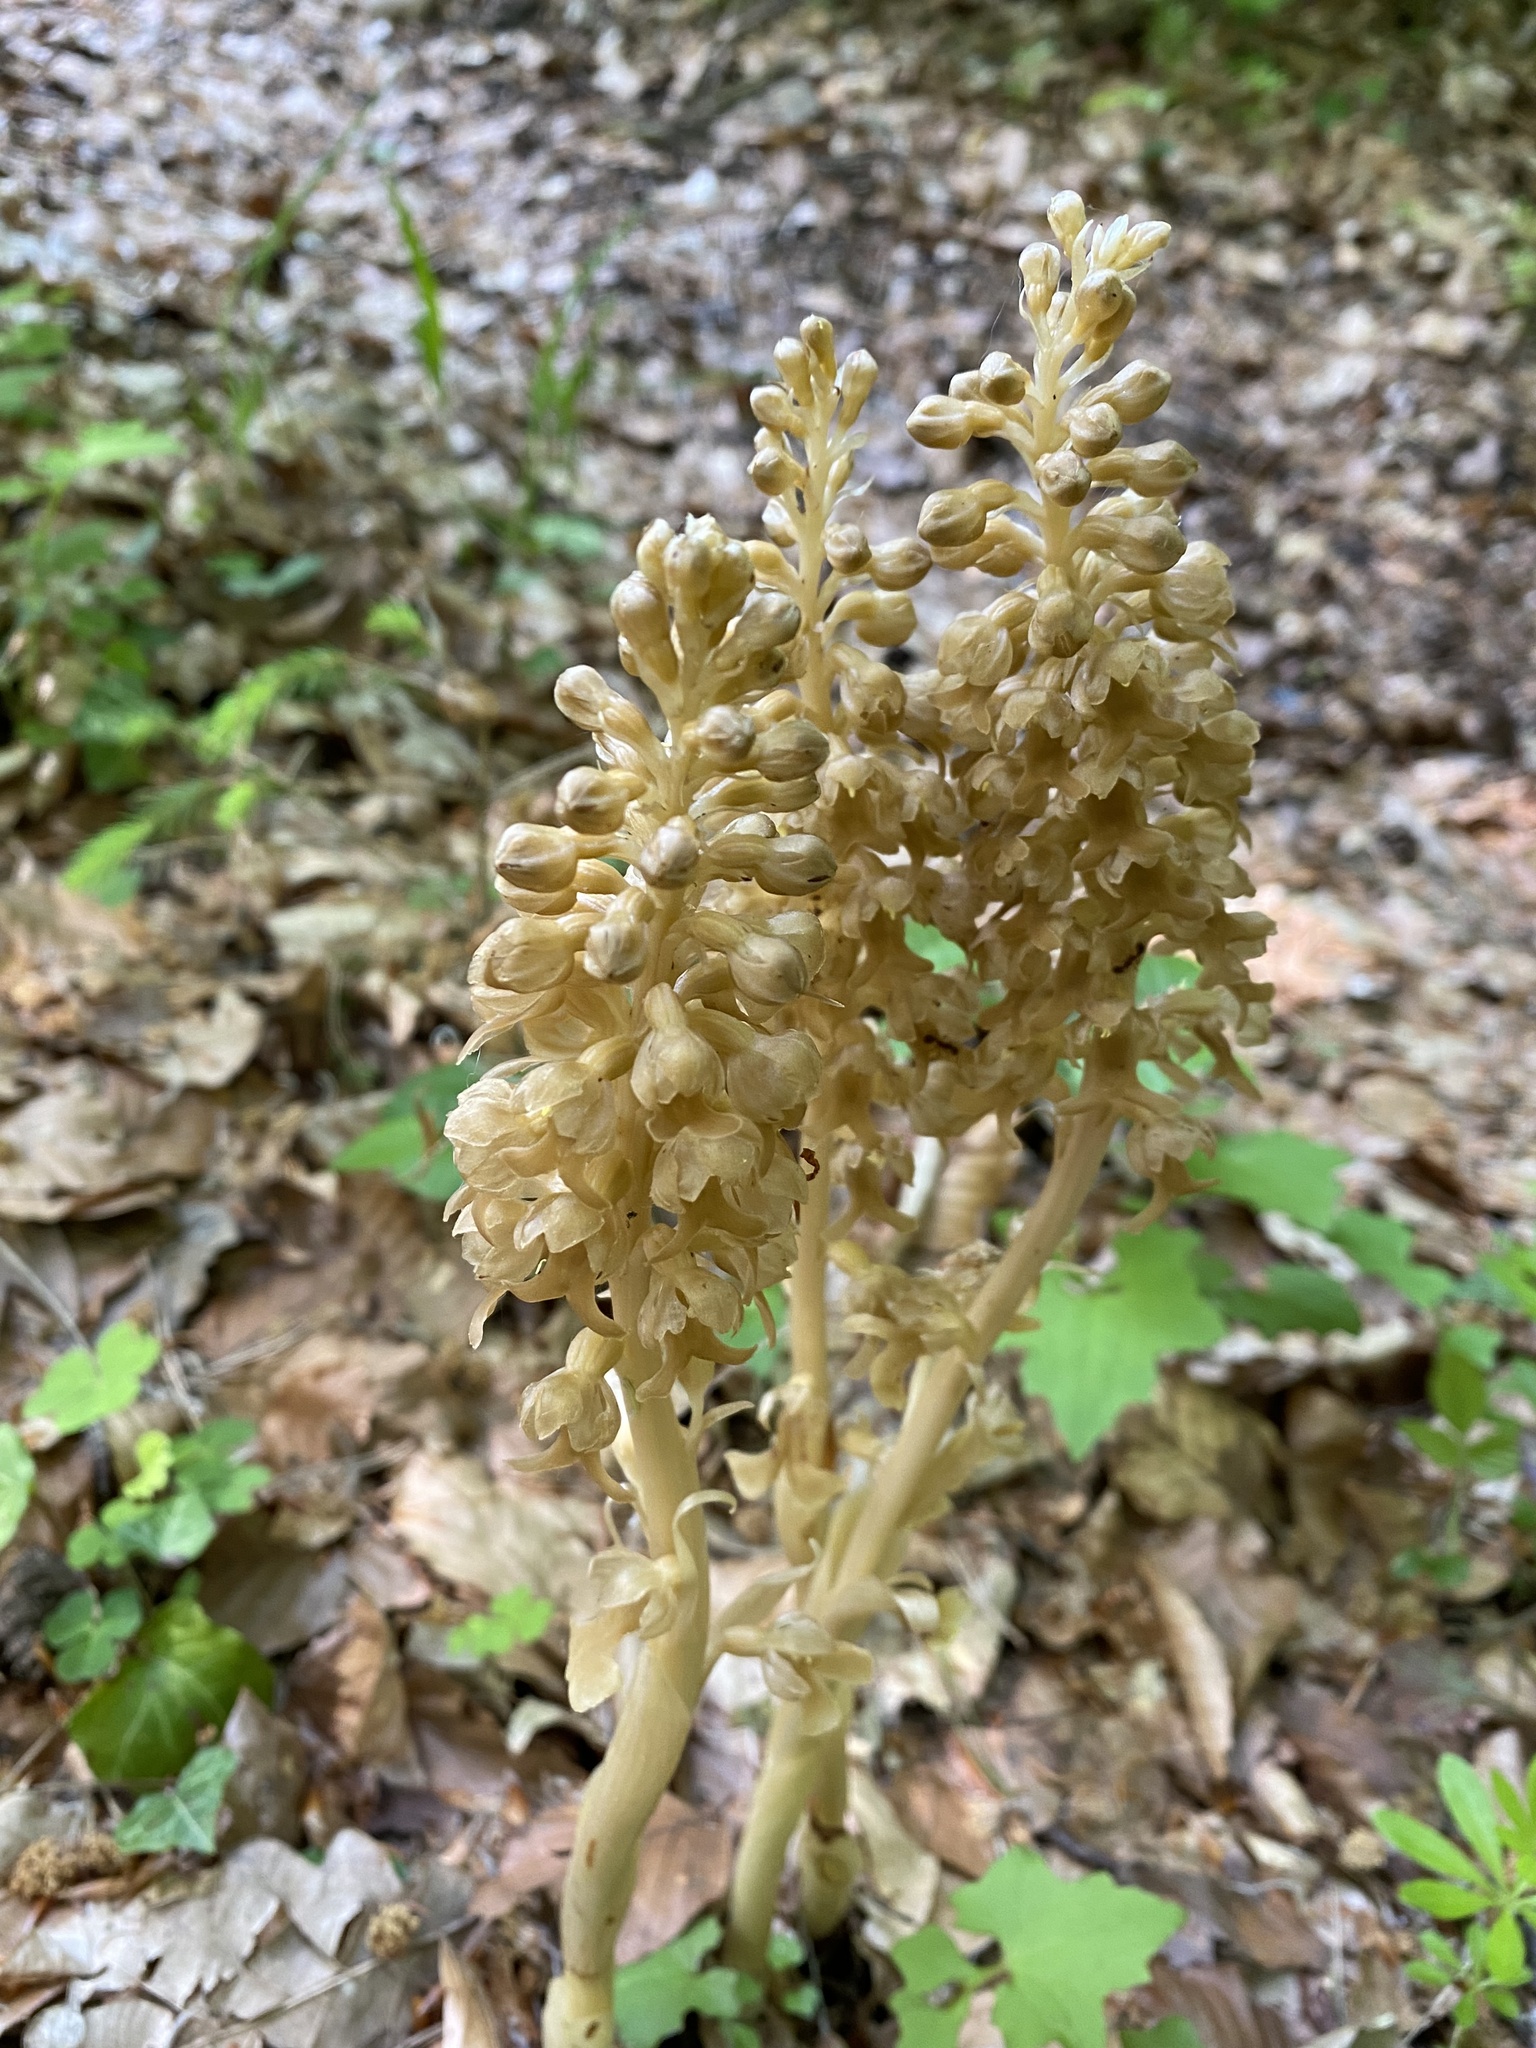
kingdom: Plantae
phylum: Tracheophyta
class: Liliopsida
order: Asparagales
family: Orchidaceae
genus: Neottia
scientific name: Neottia nidus-avis
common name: Bird's-nest orchid
